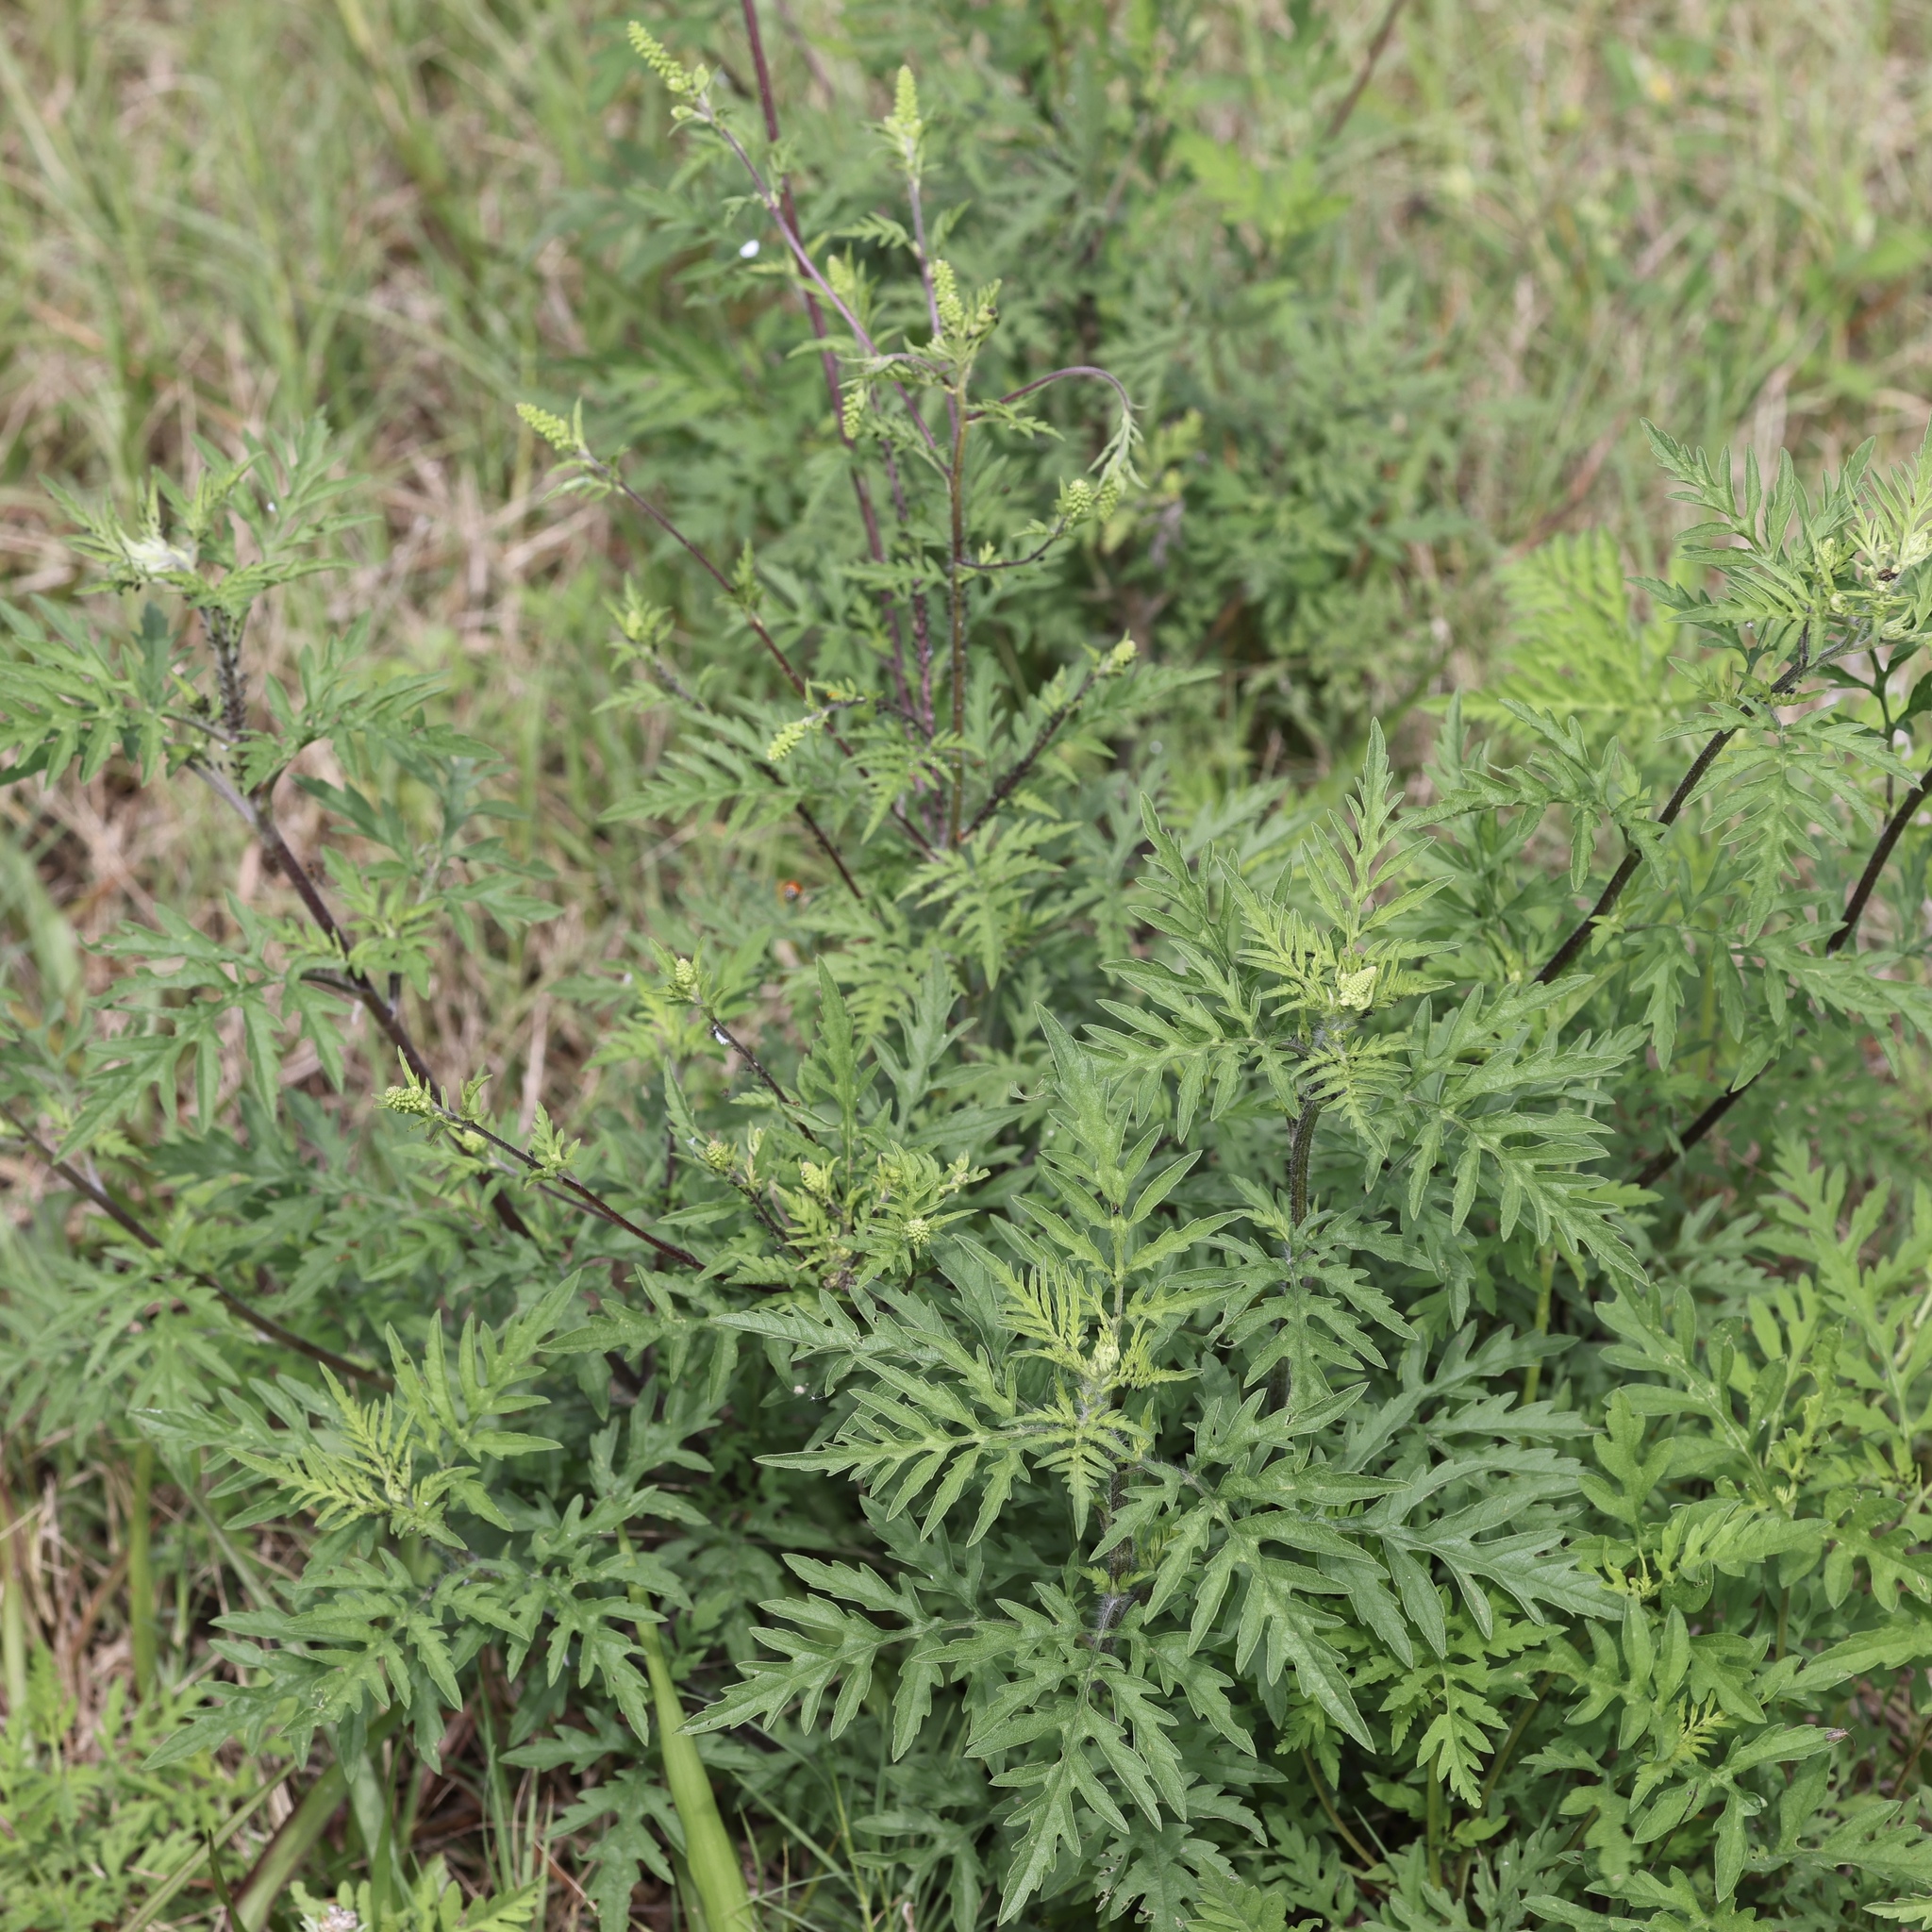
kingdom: Plantae
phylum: Tracheophyta
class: Magnoliopsida
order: Asterales
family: Asteraceae
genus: Ambrosia
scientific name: Ambrosia artemisiifolia
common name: Annual ragweed
